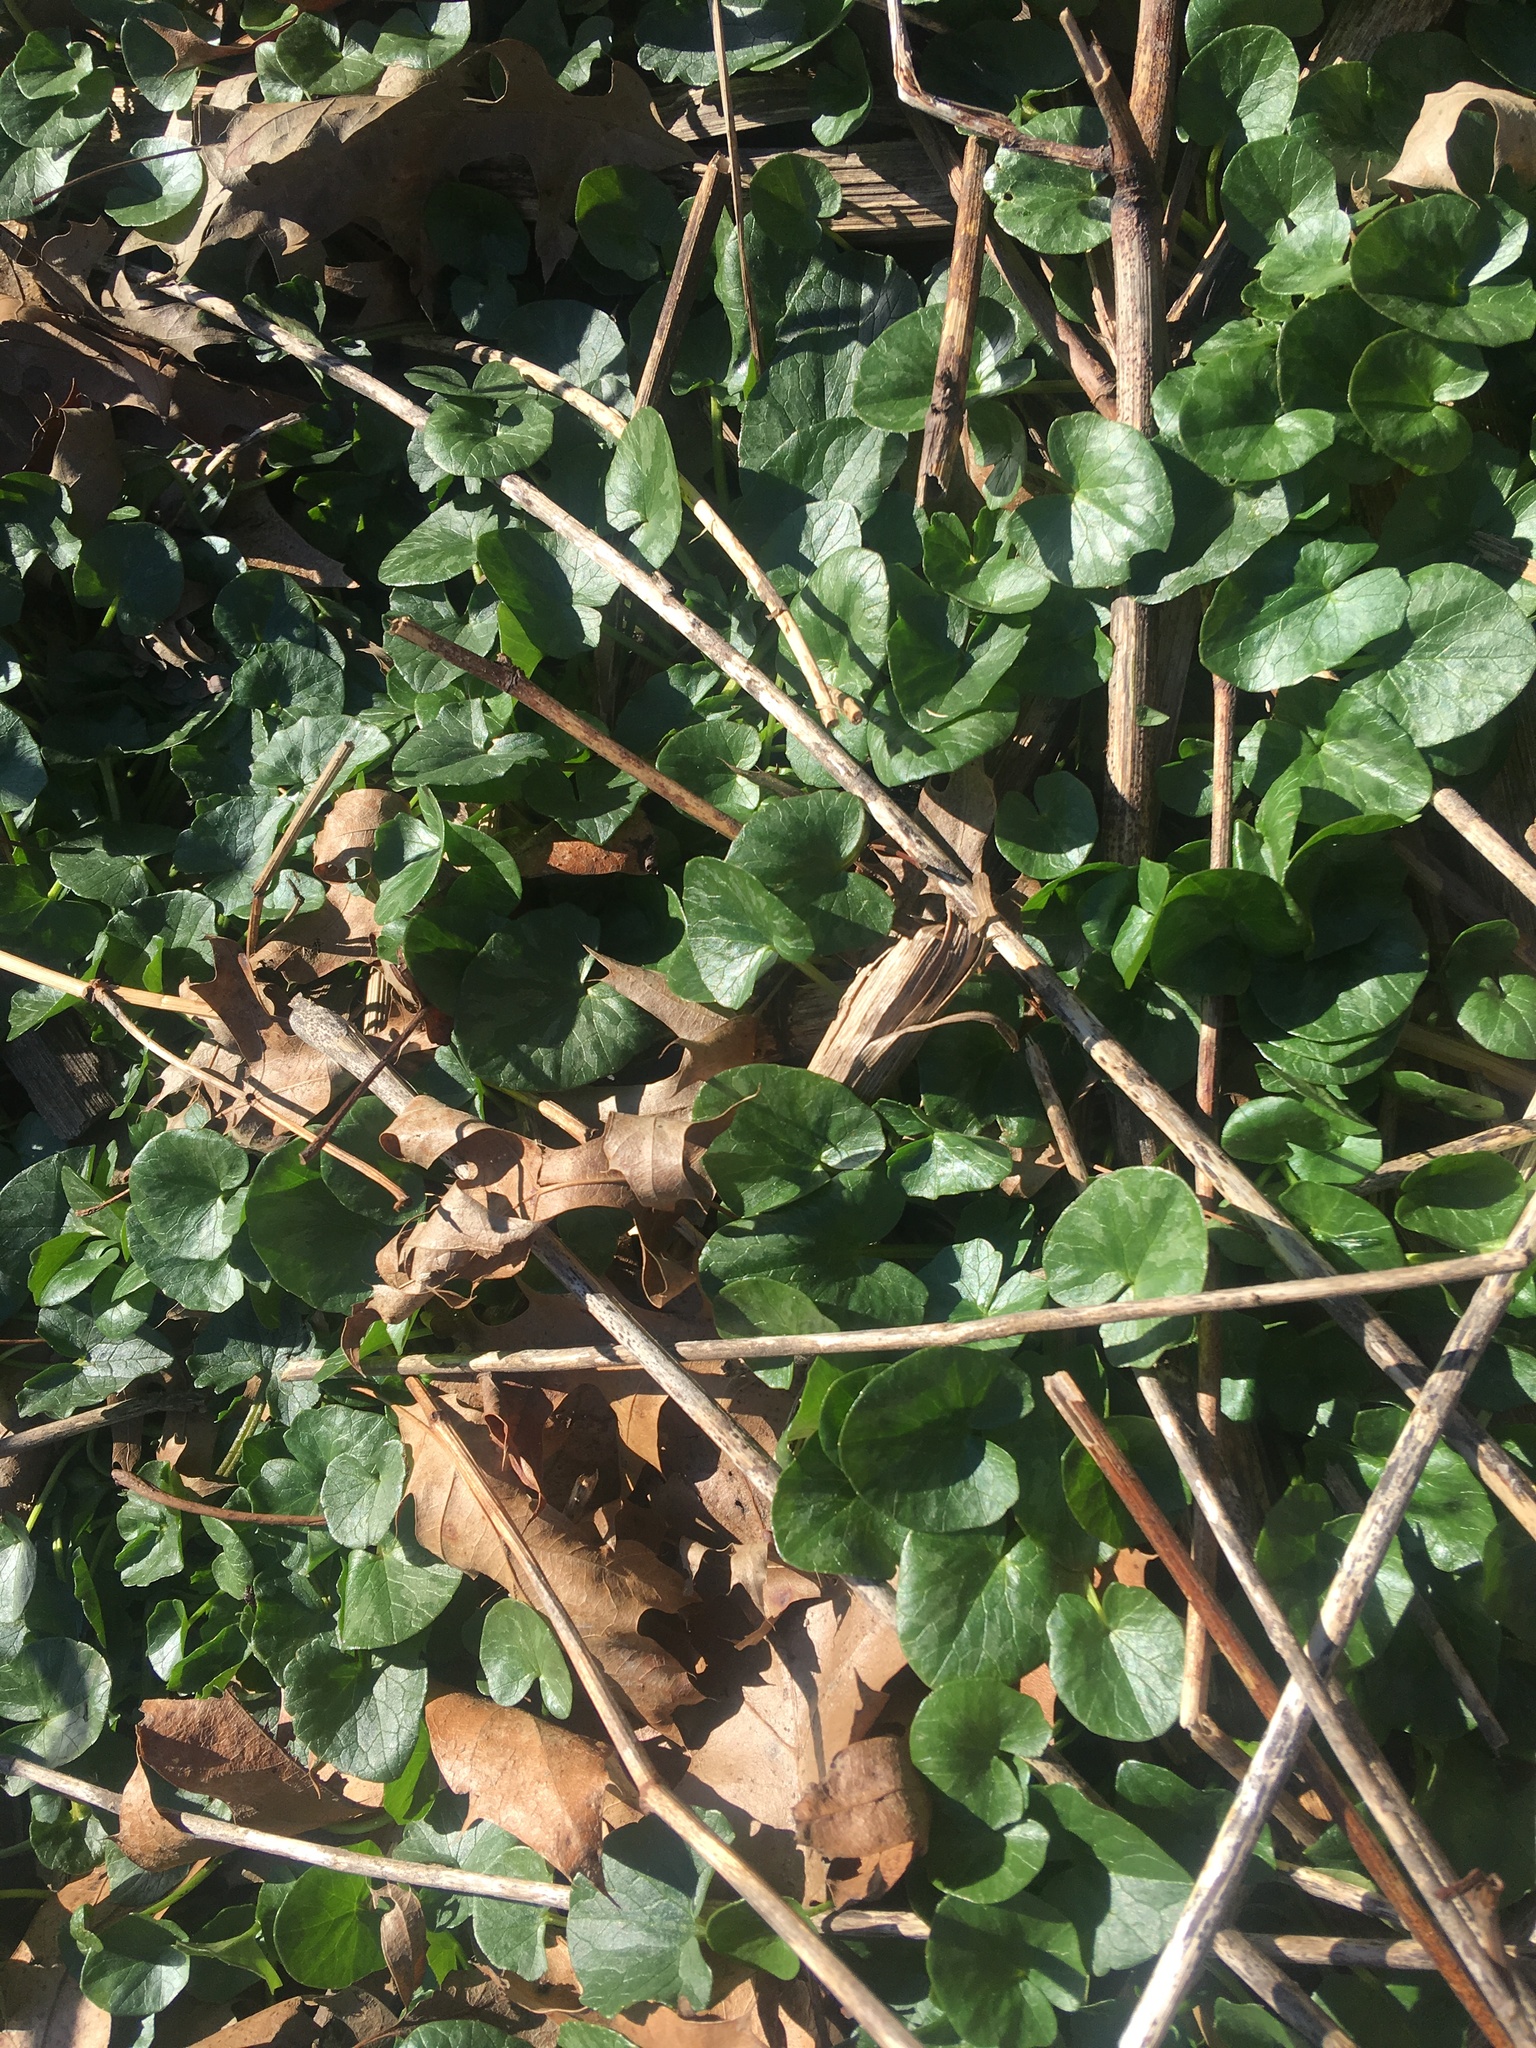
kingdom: Plantae
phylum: Tracheophyta
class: Magnoliopsida
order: Ranunculales
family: Ranunculaceae
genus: Ficaria
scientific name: Ficaria verna
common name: Lesser celandine
